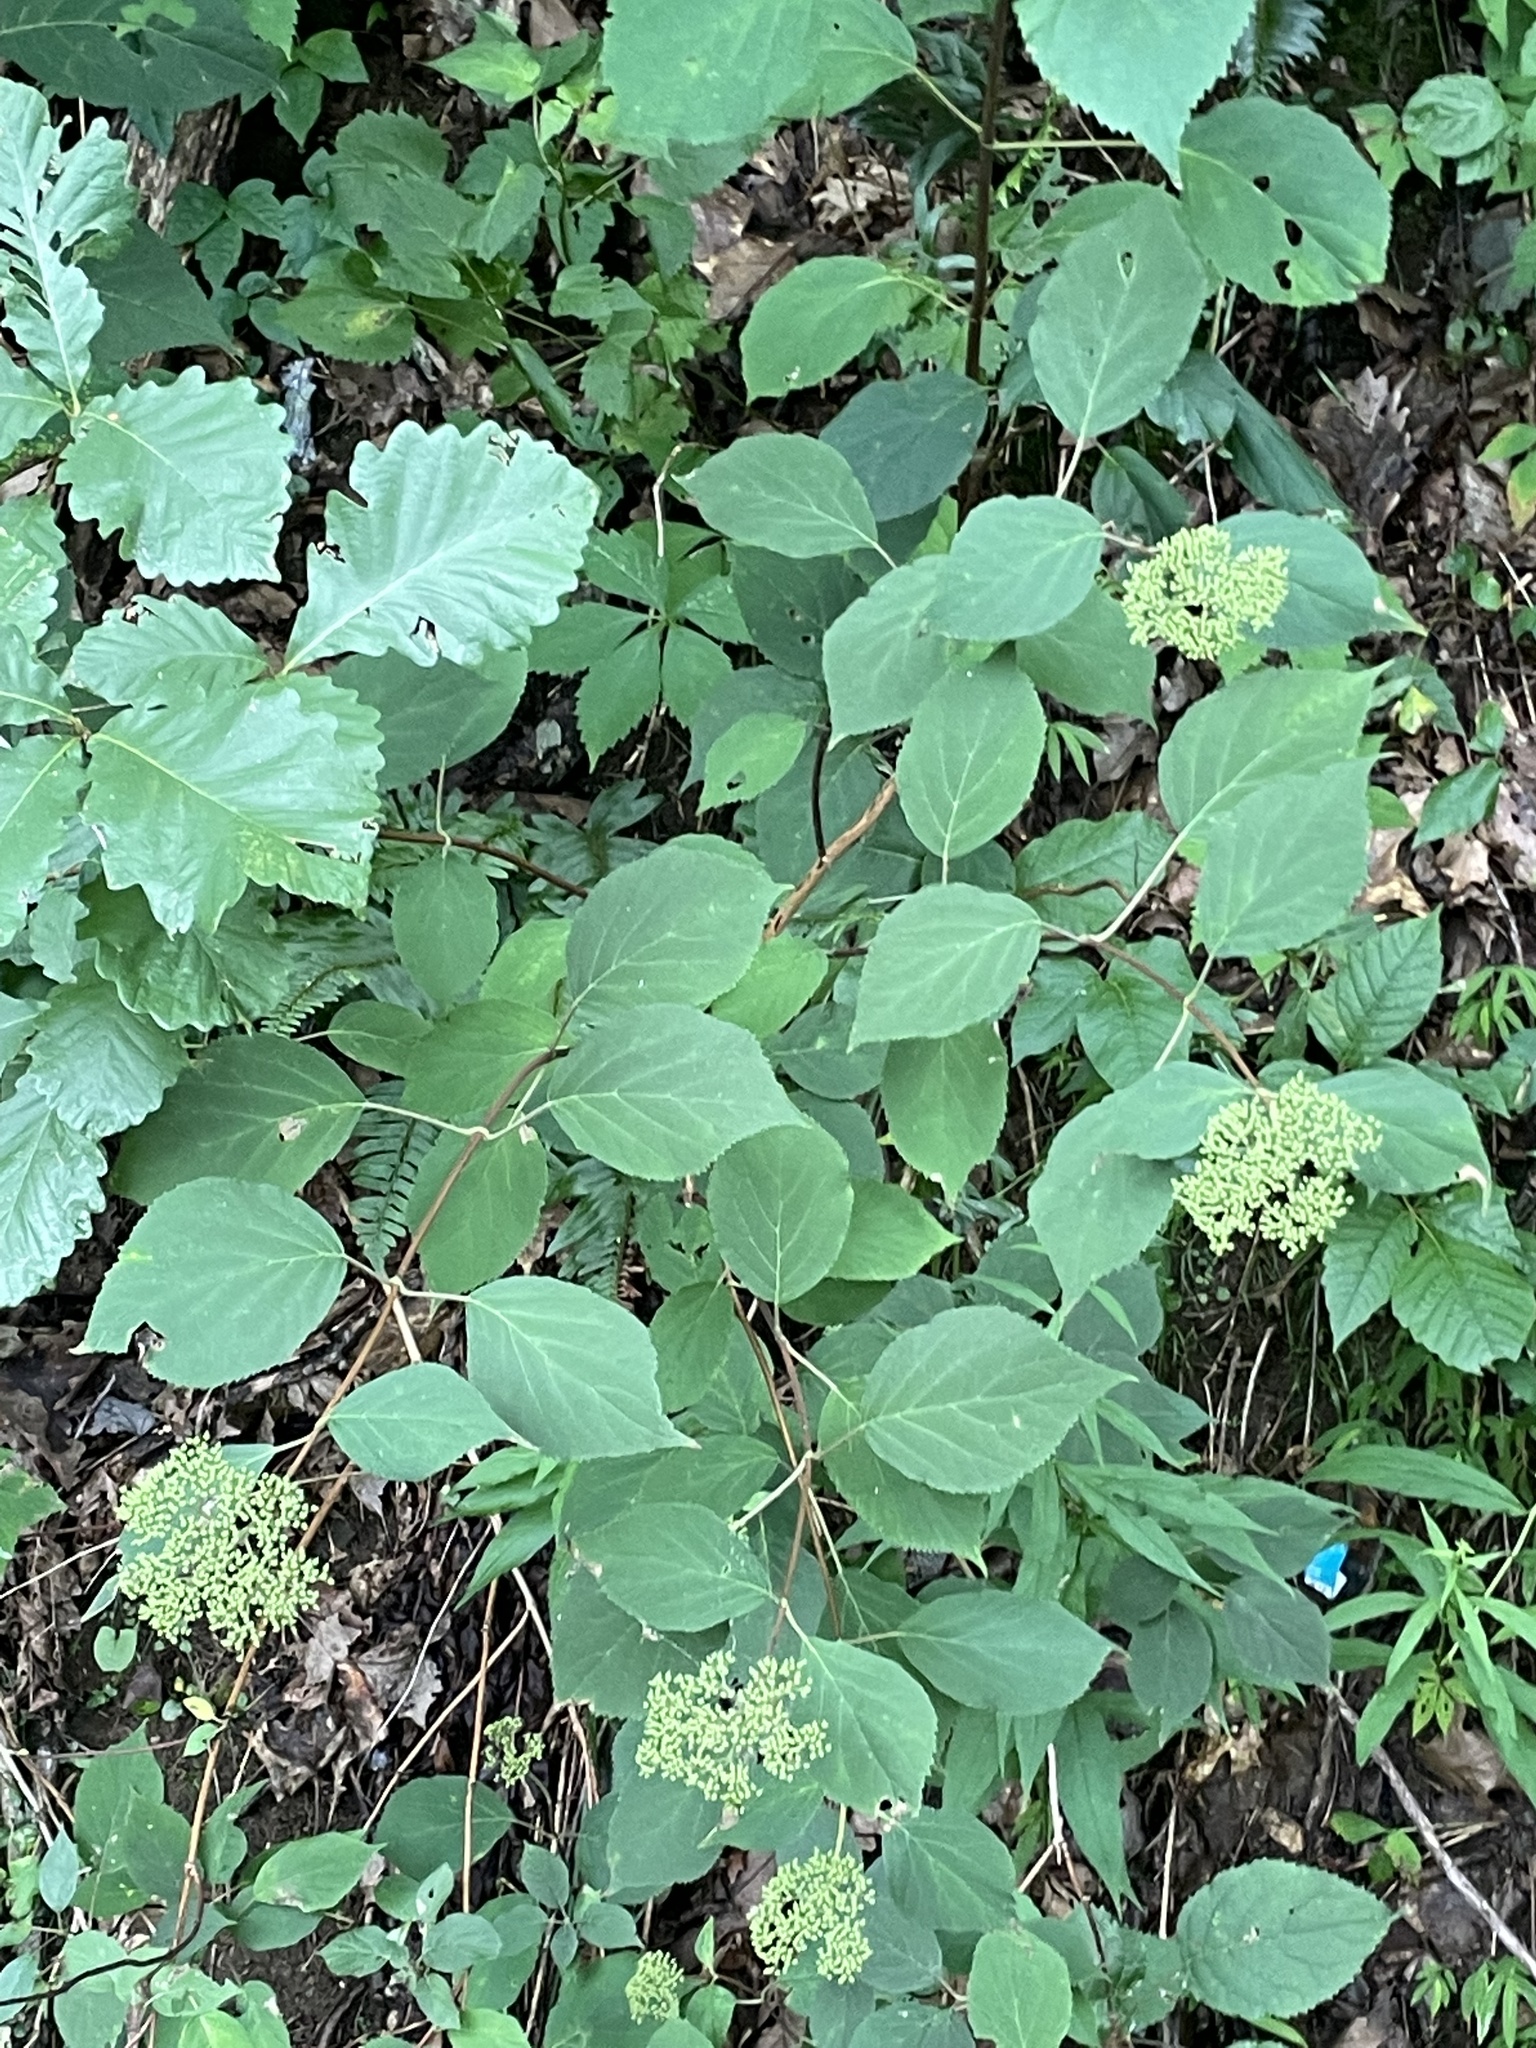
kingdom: Plantae
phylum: Tracheophyta
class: Magnoliopsida
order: Cornales
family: Hydrangeaceae
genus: Hydrangea
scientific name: Hydrangea arborescens
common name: Sevenbark
